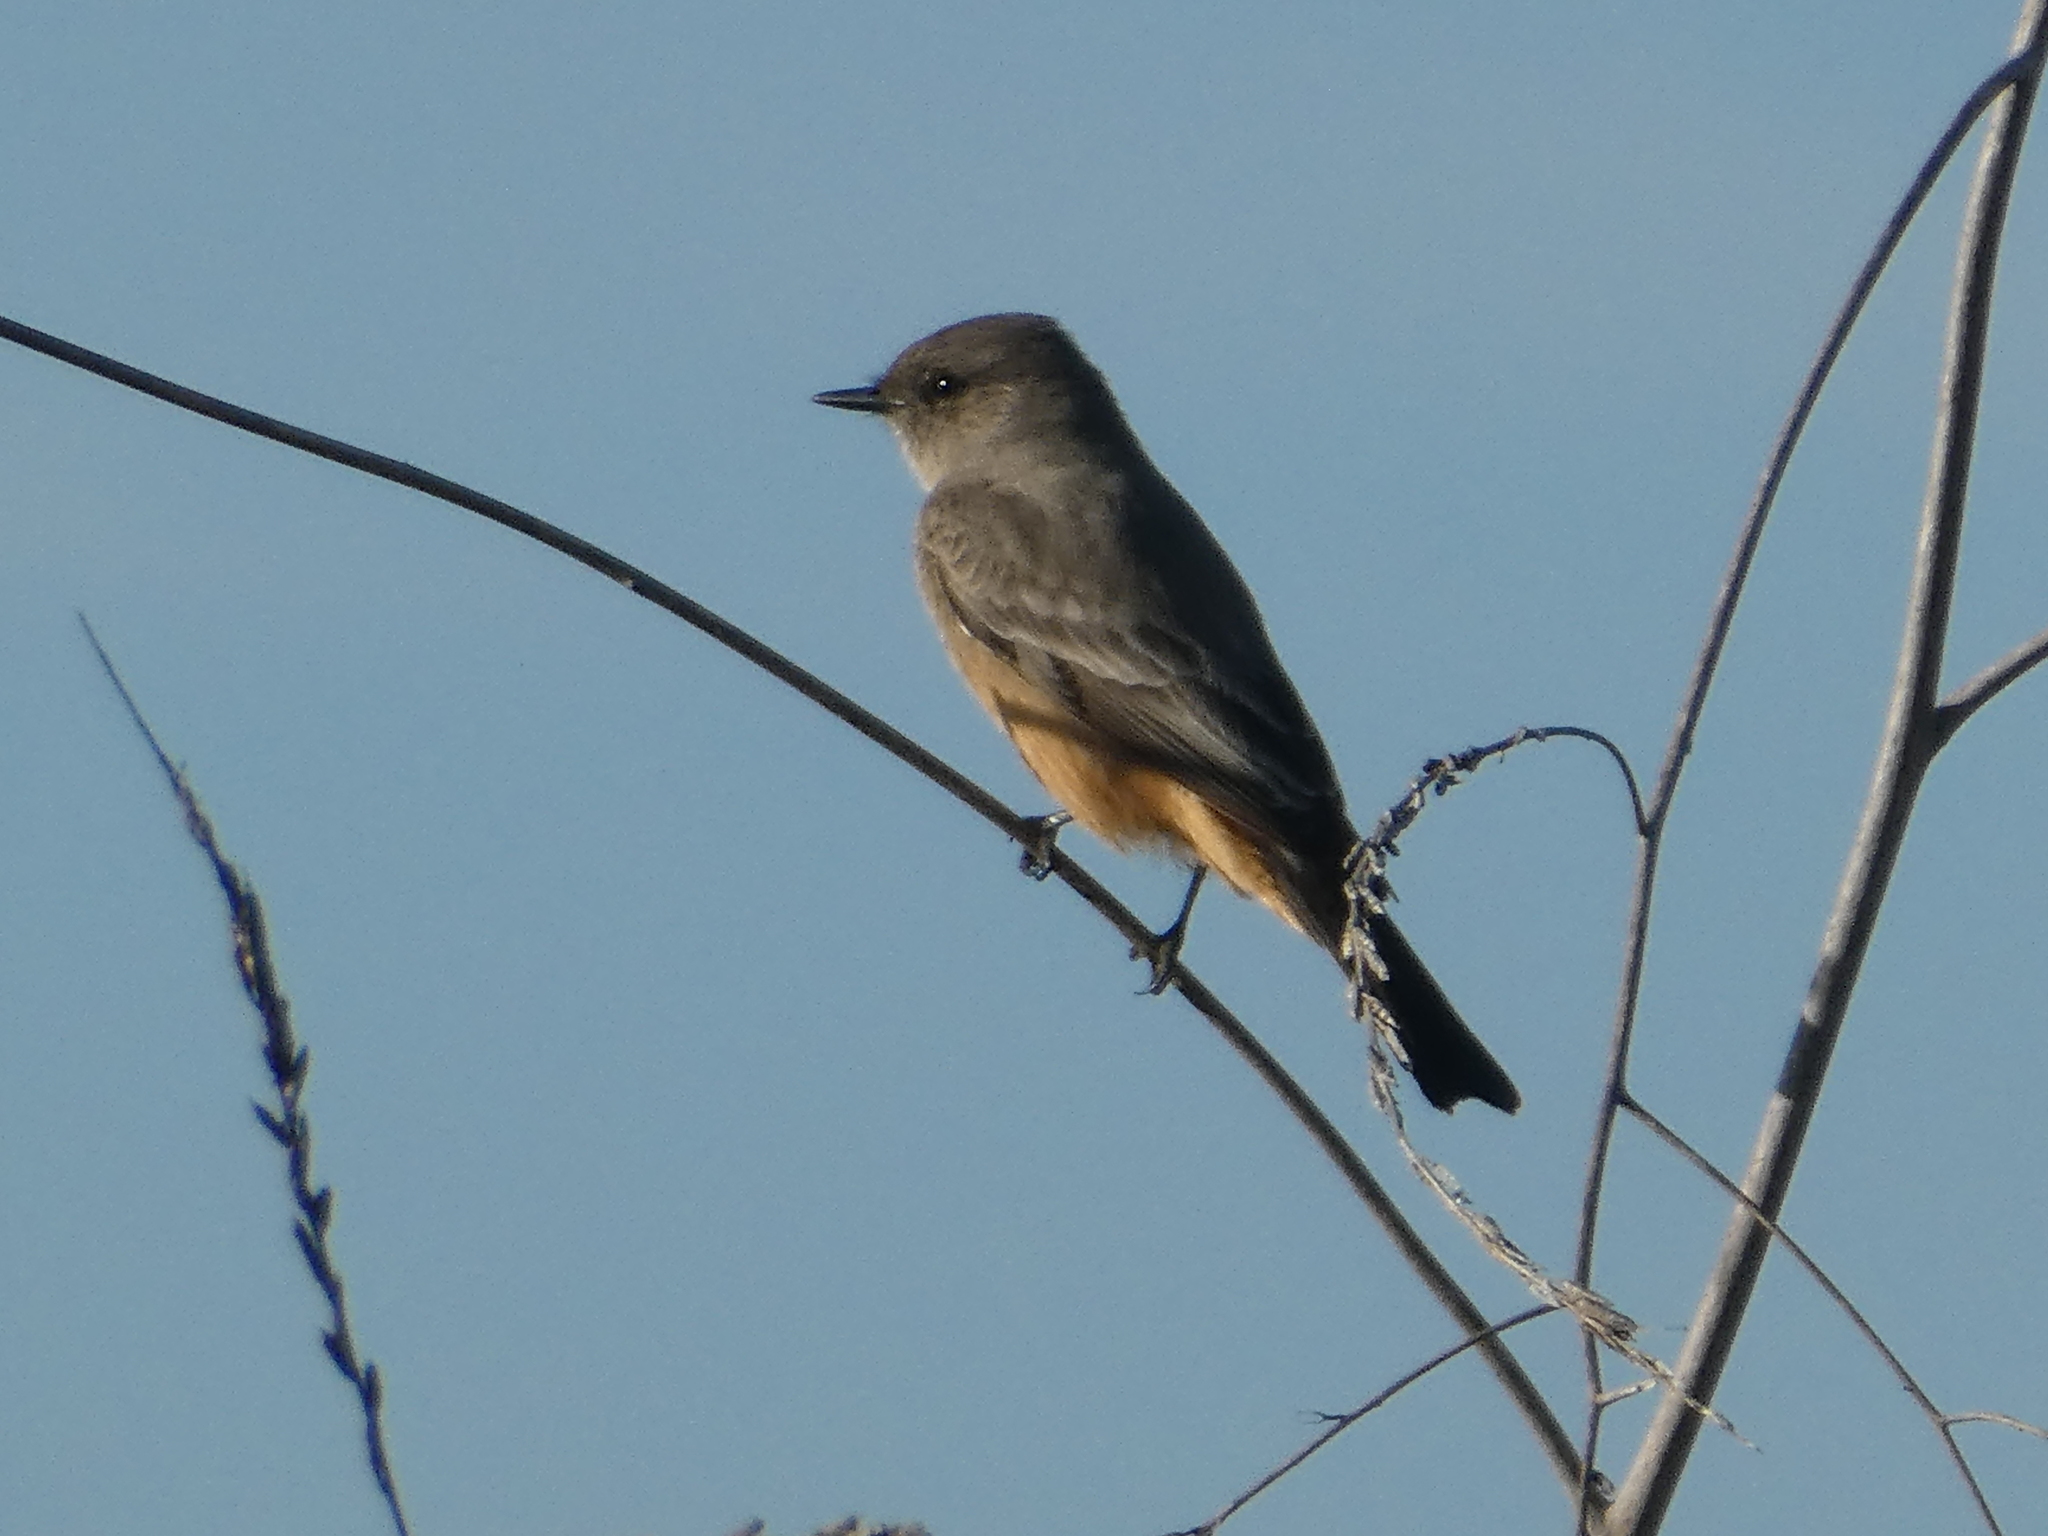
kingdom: Animalia
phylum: Chordata
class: Aves
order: Passeriformes
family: Tyrannidae
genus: Sayornis
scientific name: Sayornis saya
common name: Say's phoebe
